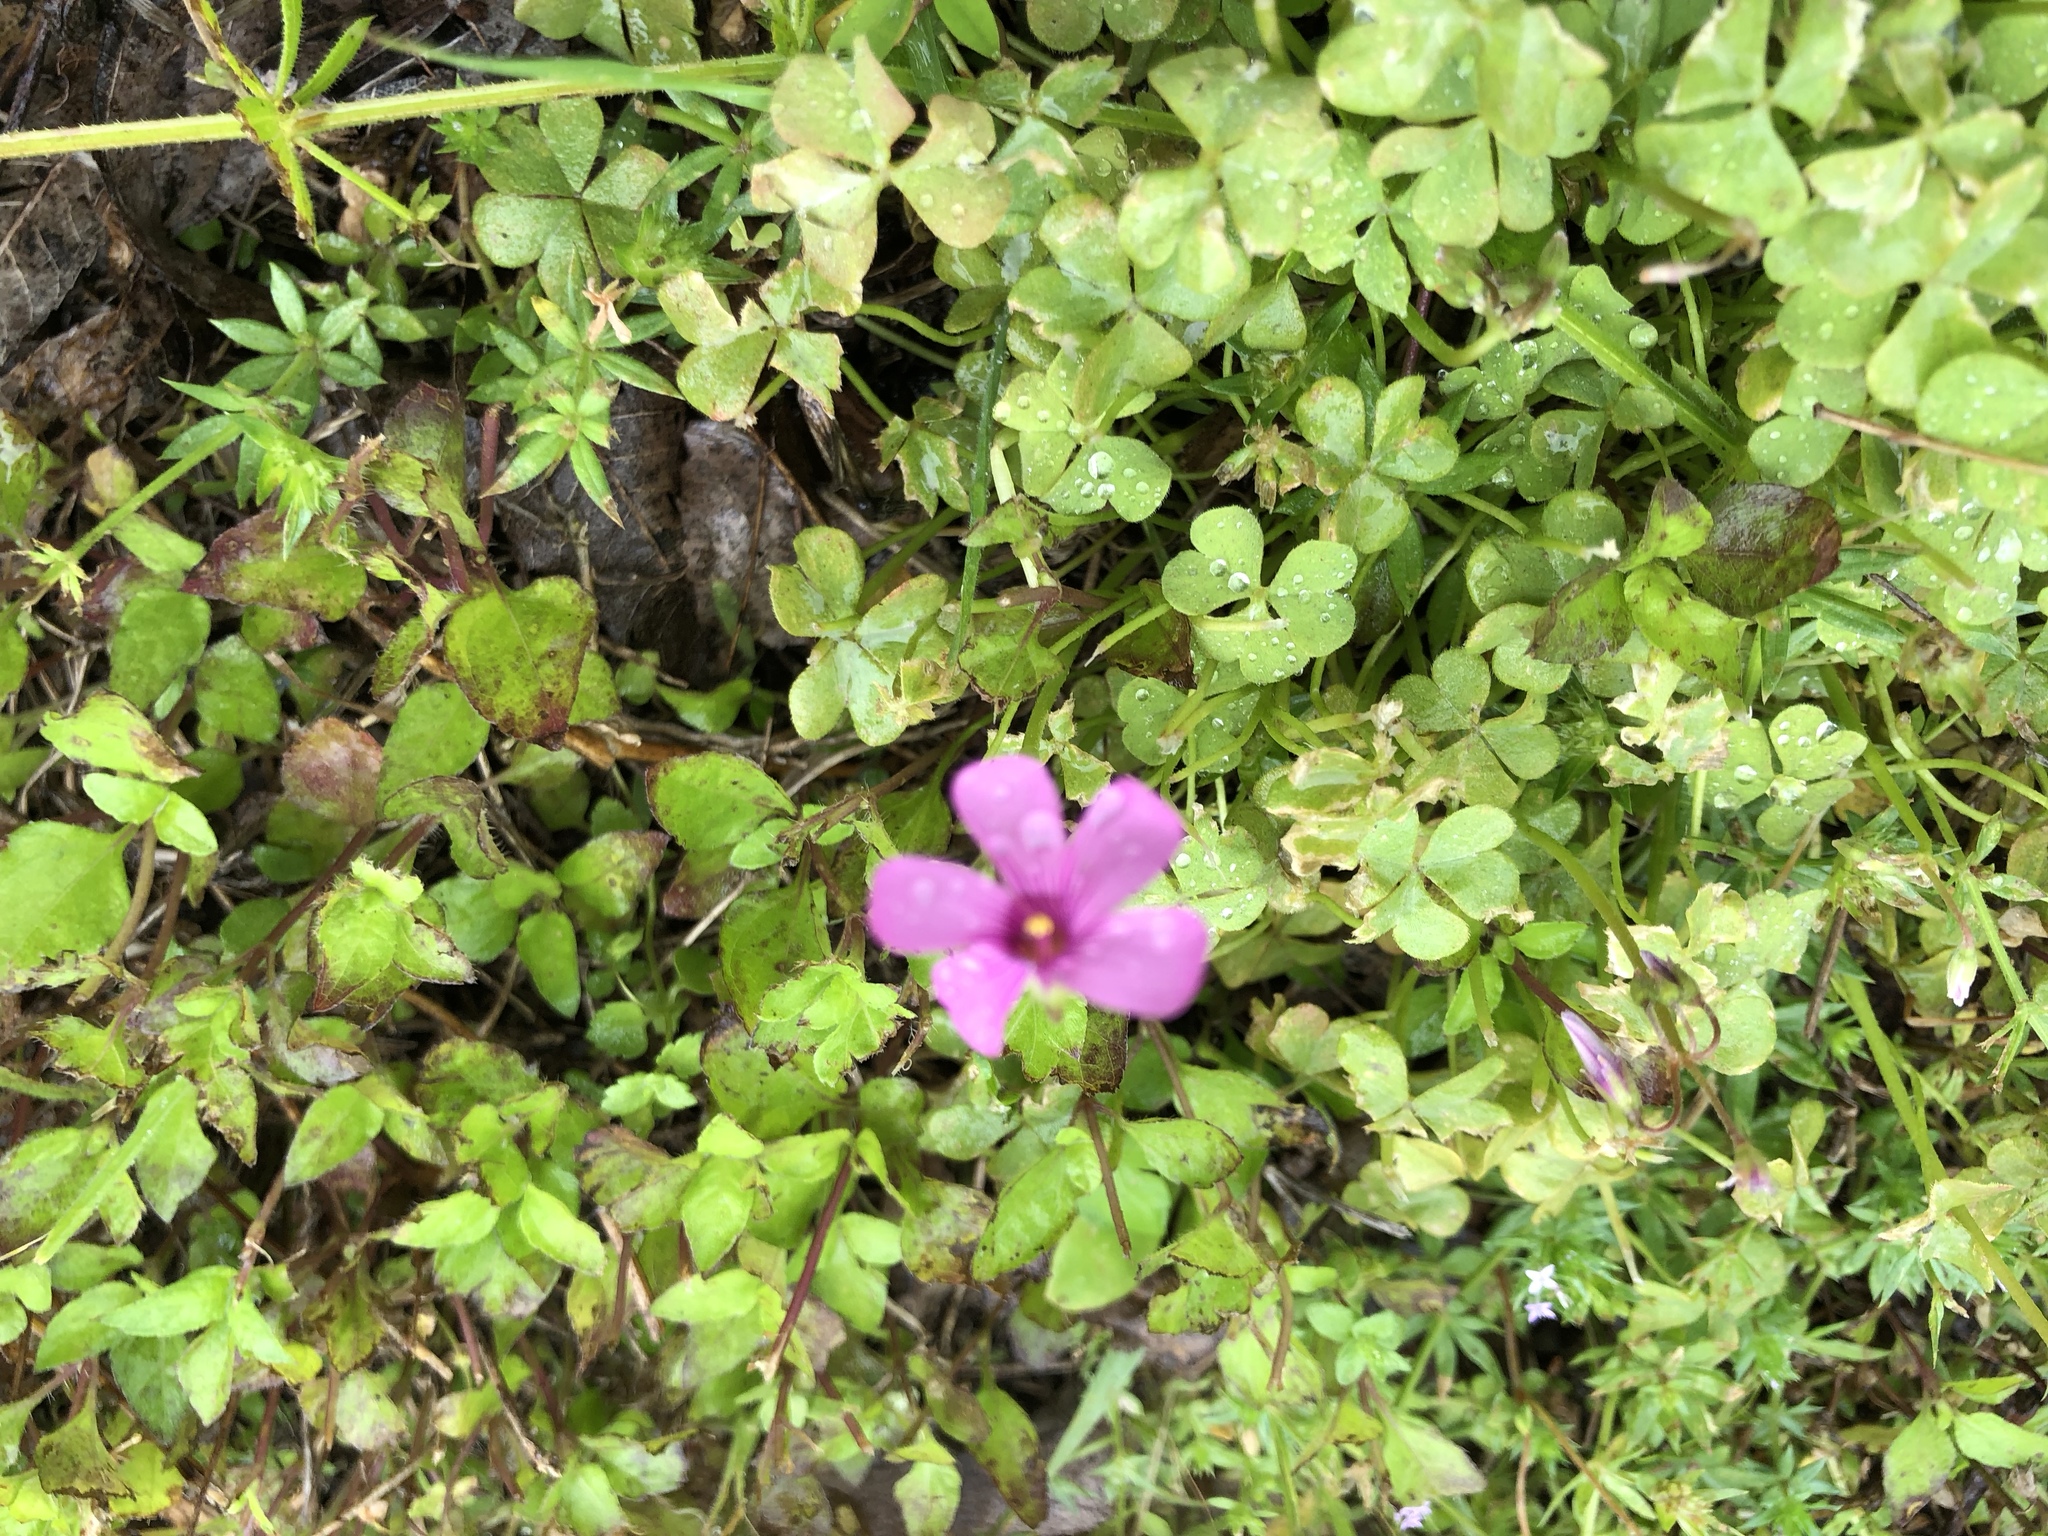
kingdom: Plantae
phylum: Tracheophyta
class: Magnoliopsida
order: Oxalidales
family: Oxalidaceae
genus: Oxalis
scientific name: Oxalis articulata
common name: Pink-sorrel
